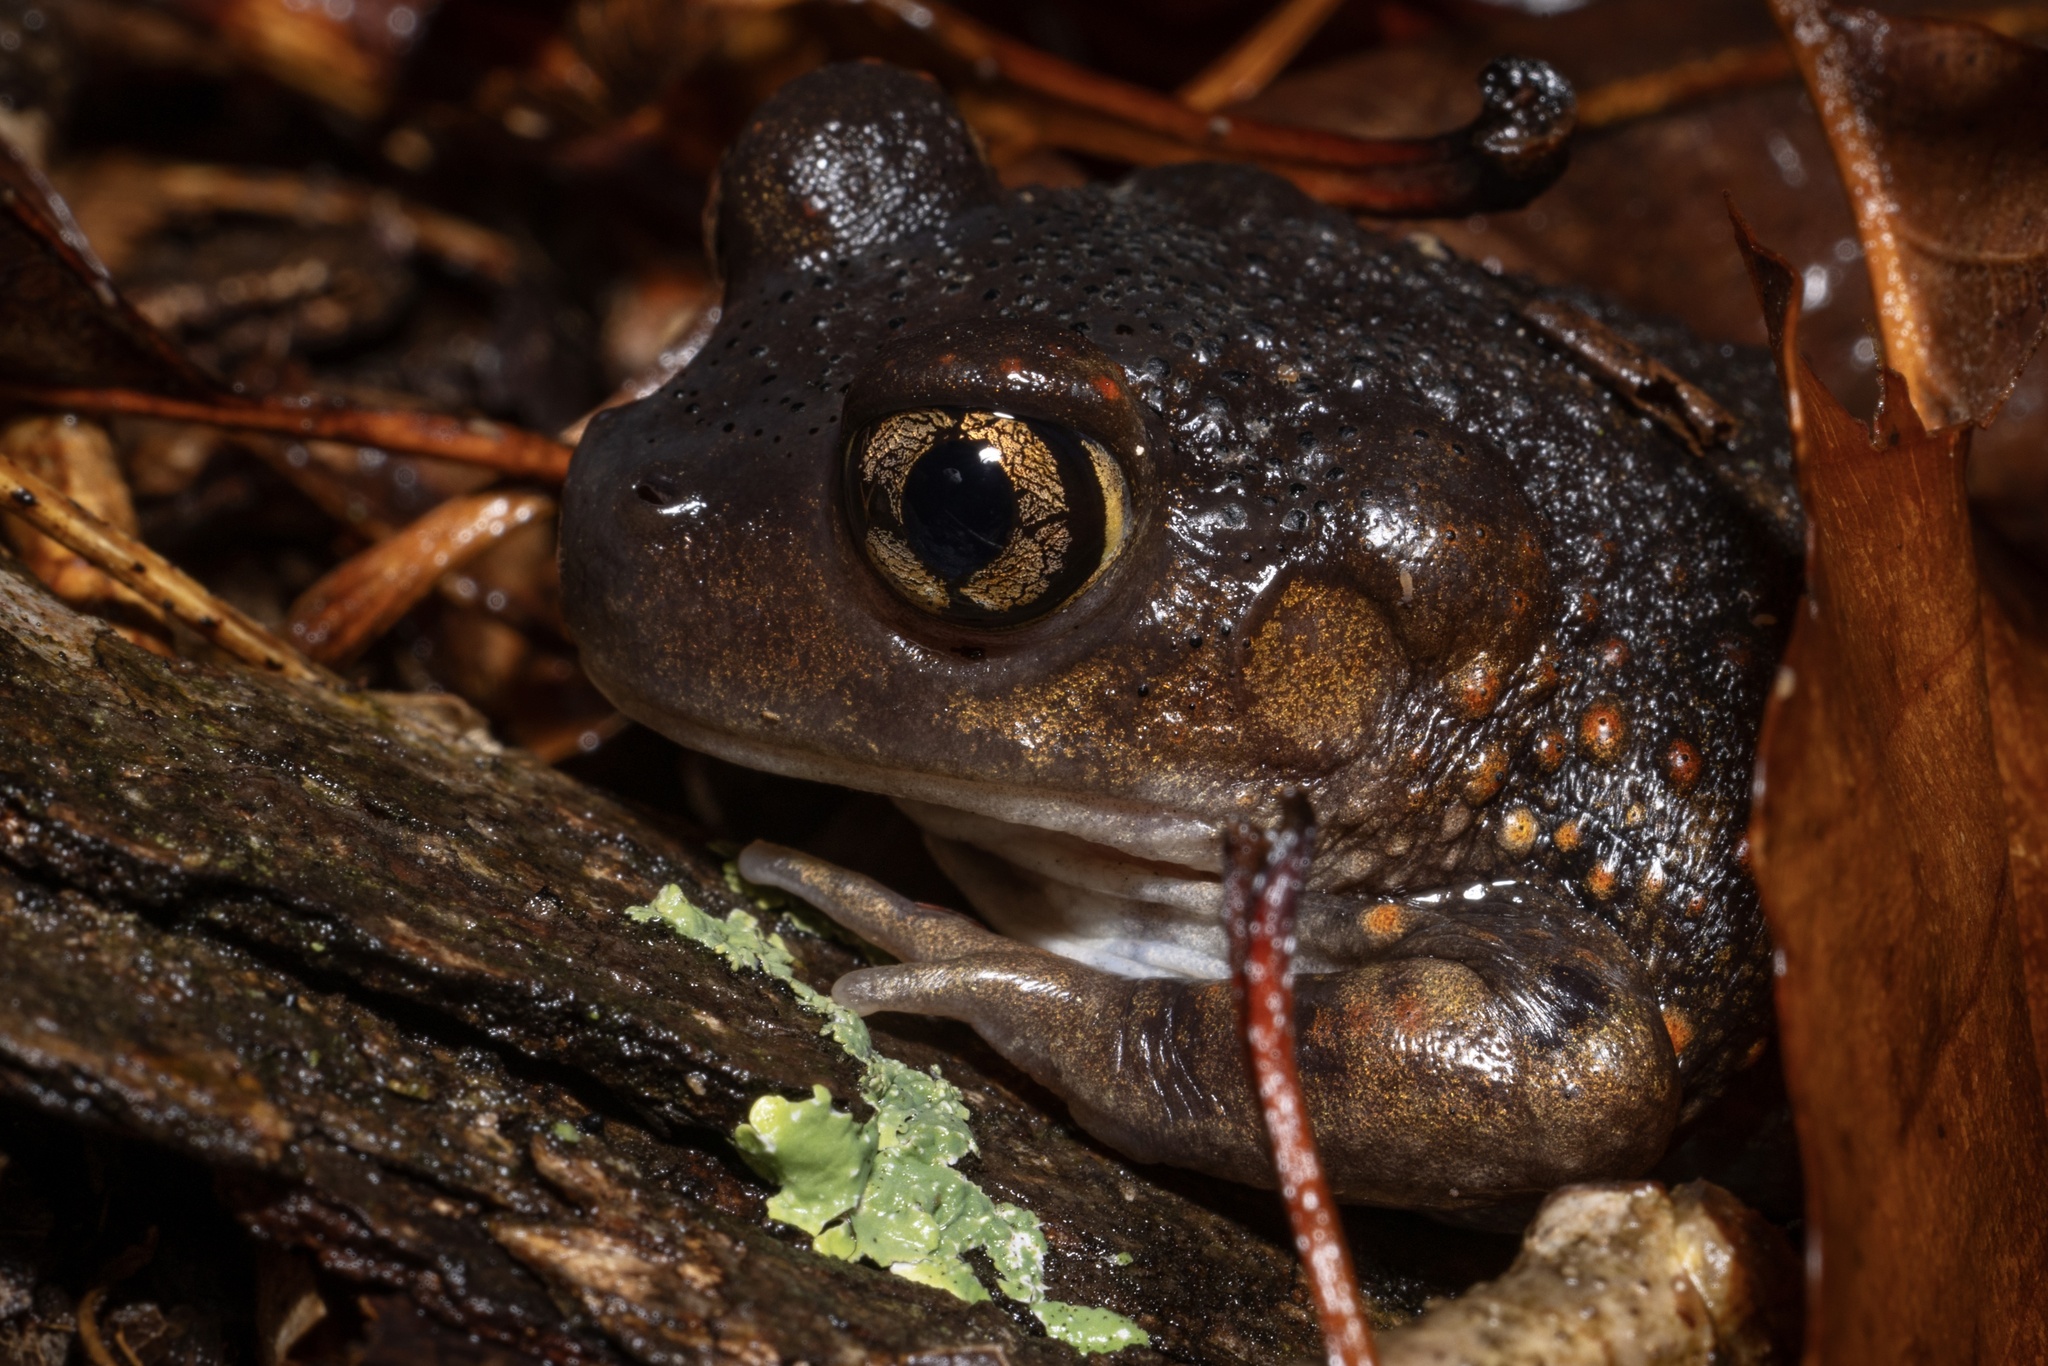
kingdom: Animalia
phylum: Chordata
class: Amphibia
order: Anura
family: Scaphiopodidae
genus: Scaphiopus
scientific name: Scaphiopus holbrookii
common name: Eastern spadefoot toad
